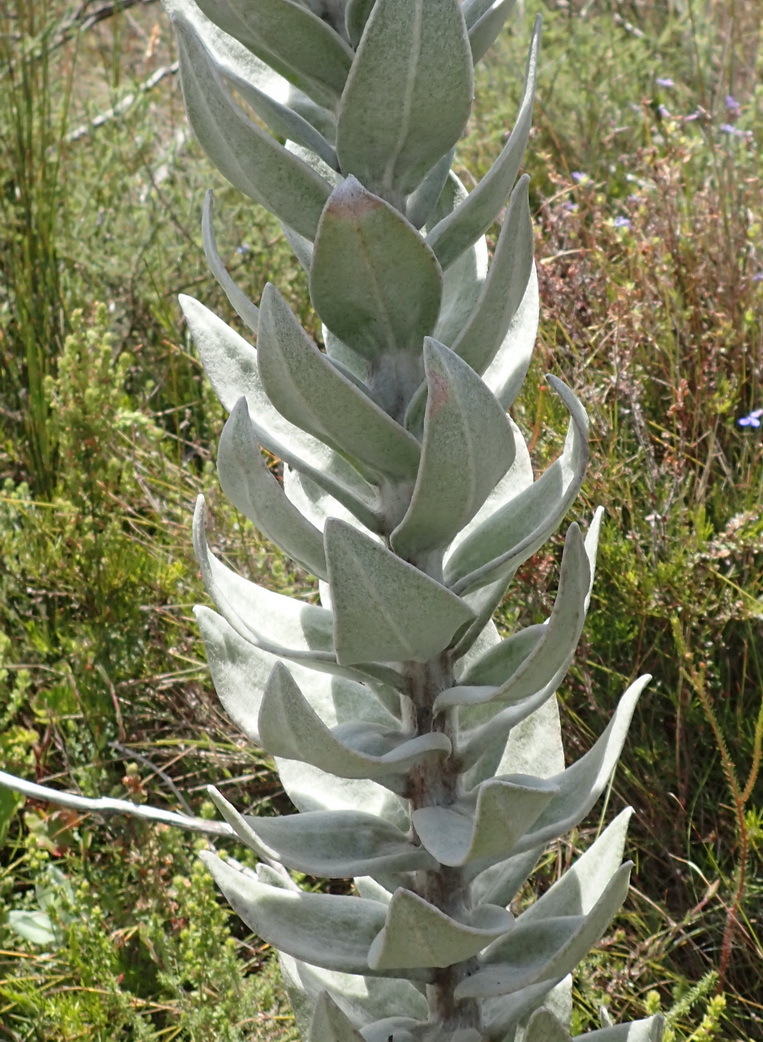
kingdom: Plantae
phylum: Tracheophyta
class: Magnoliopsida
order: Asterales
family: Asteraceae
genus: Syncarpha
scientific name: Syncarpha eximia
